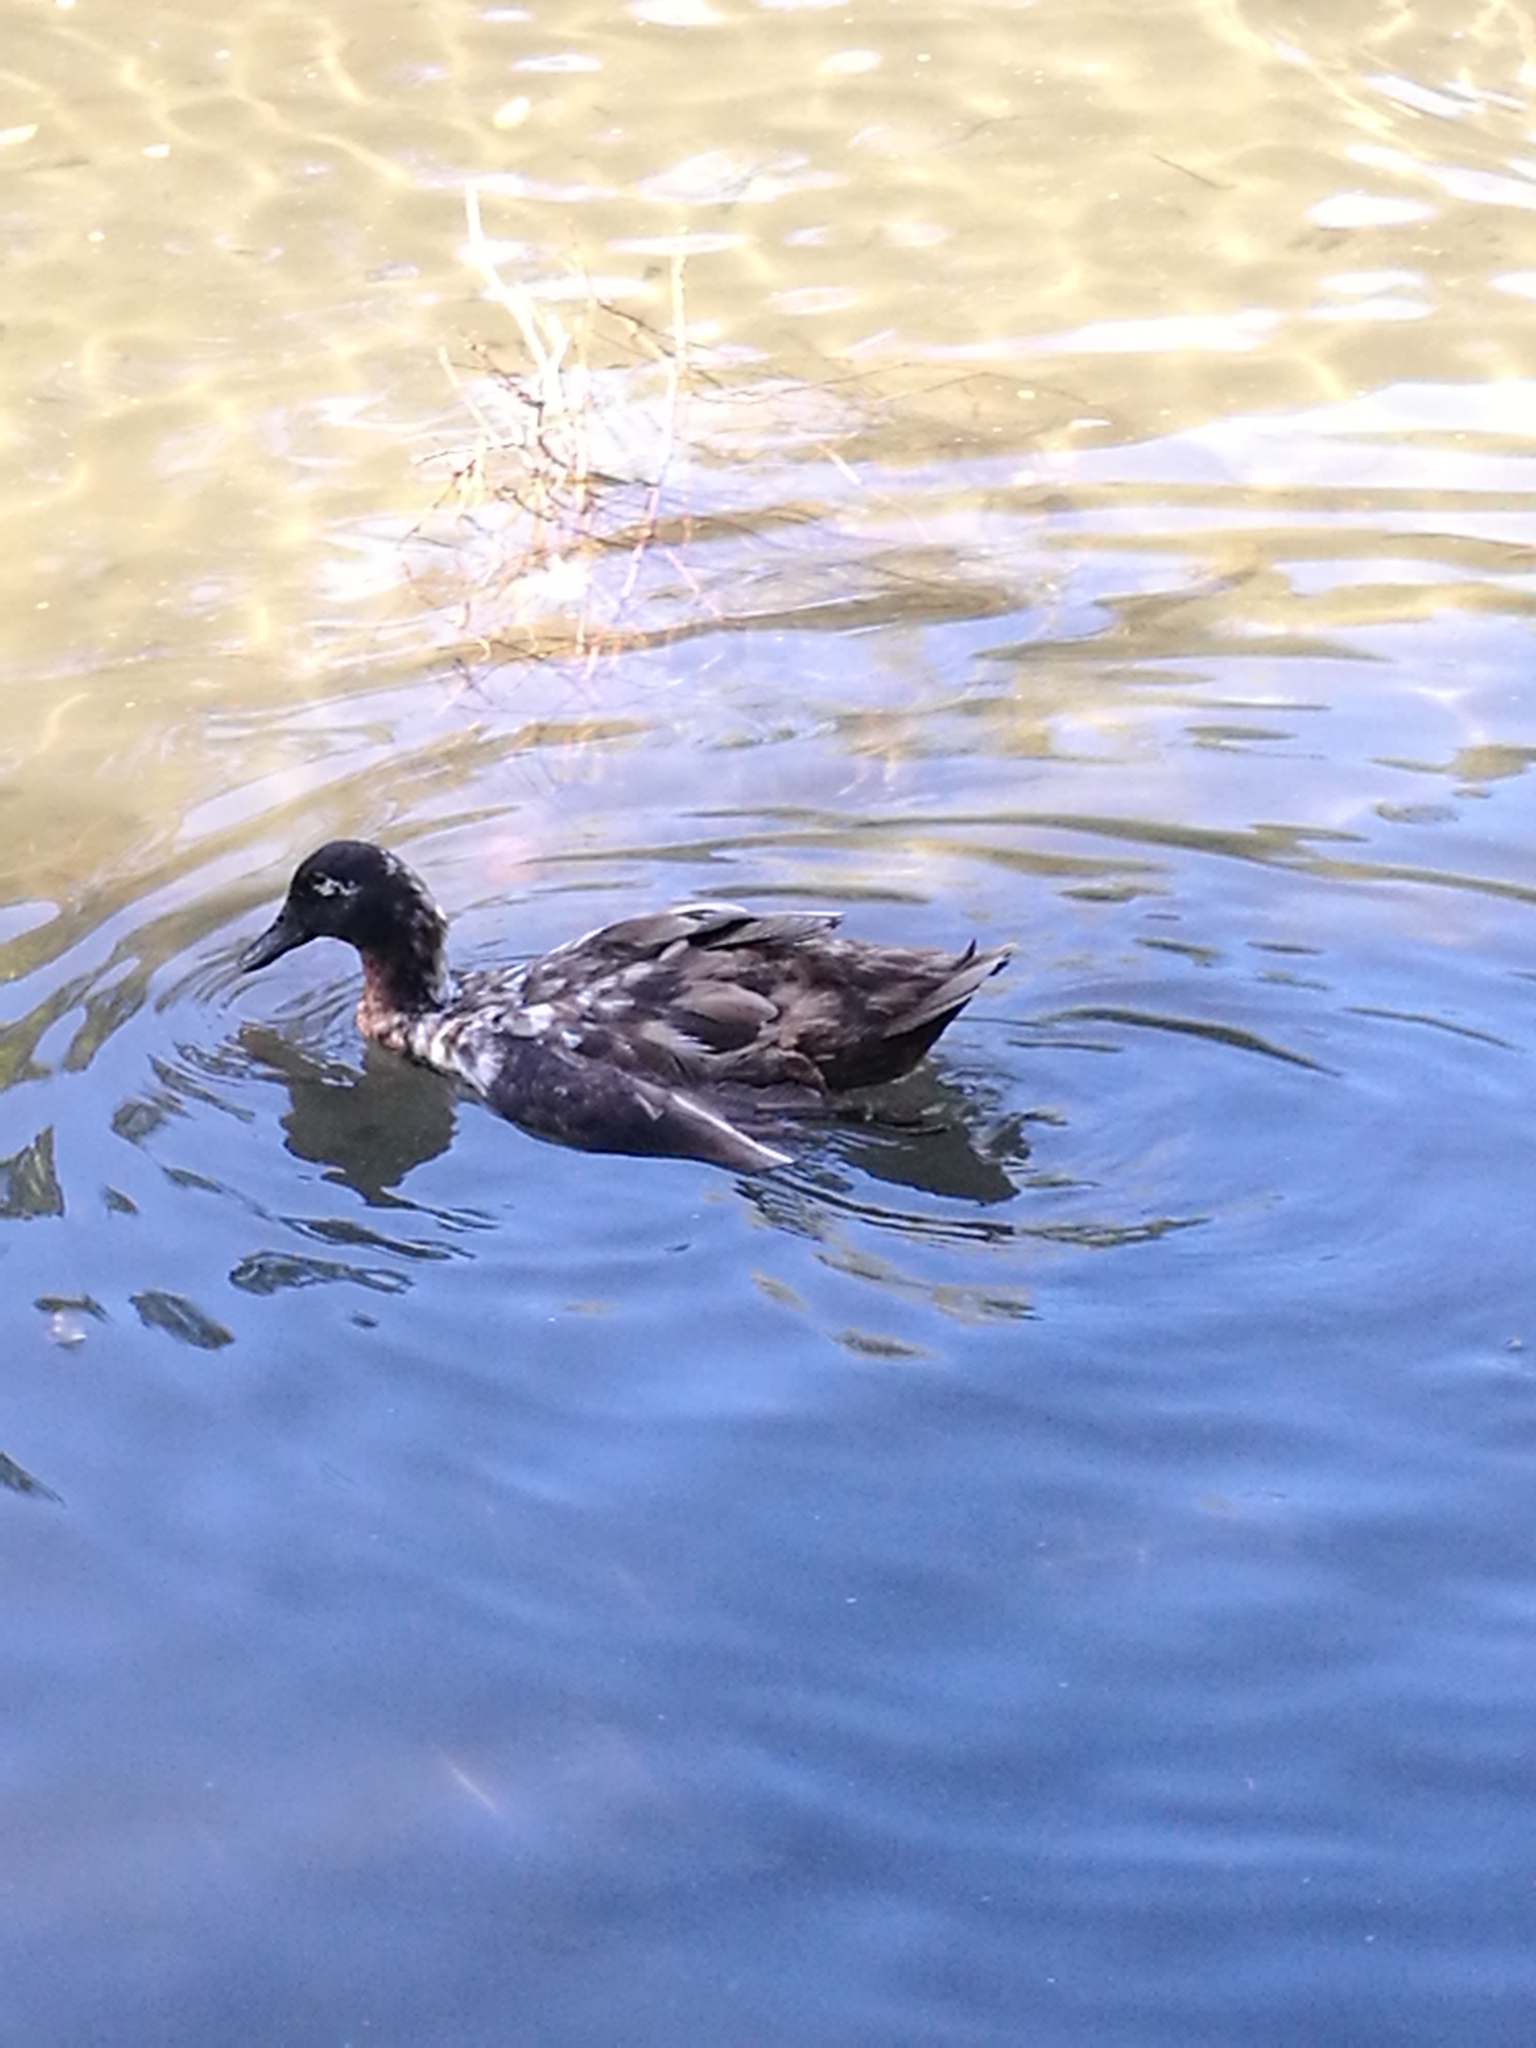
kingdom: Animalia
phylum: Chordata
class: Aves
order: Anseriformes
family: Anatidae
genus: Anas
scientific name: Anas platyrhynchos
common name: Mallard
